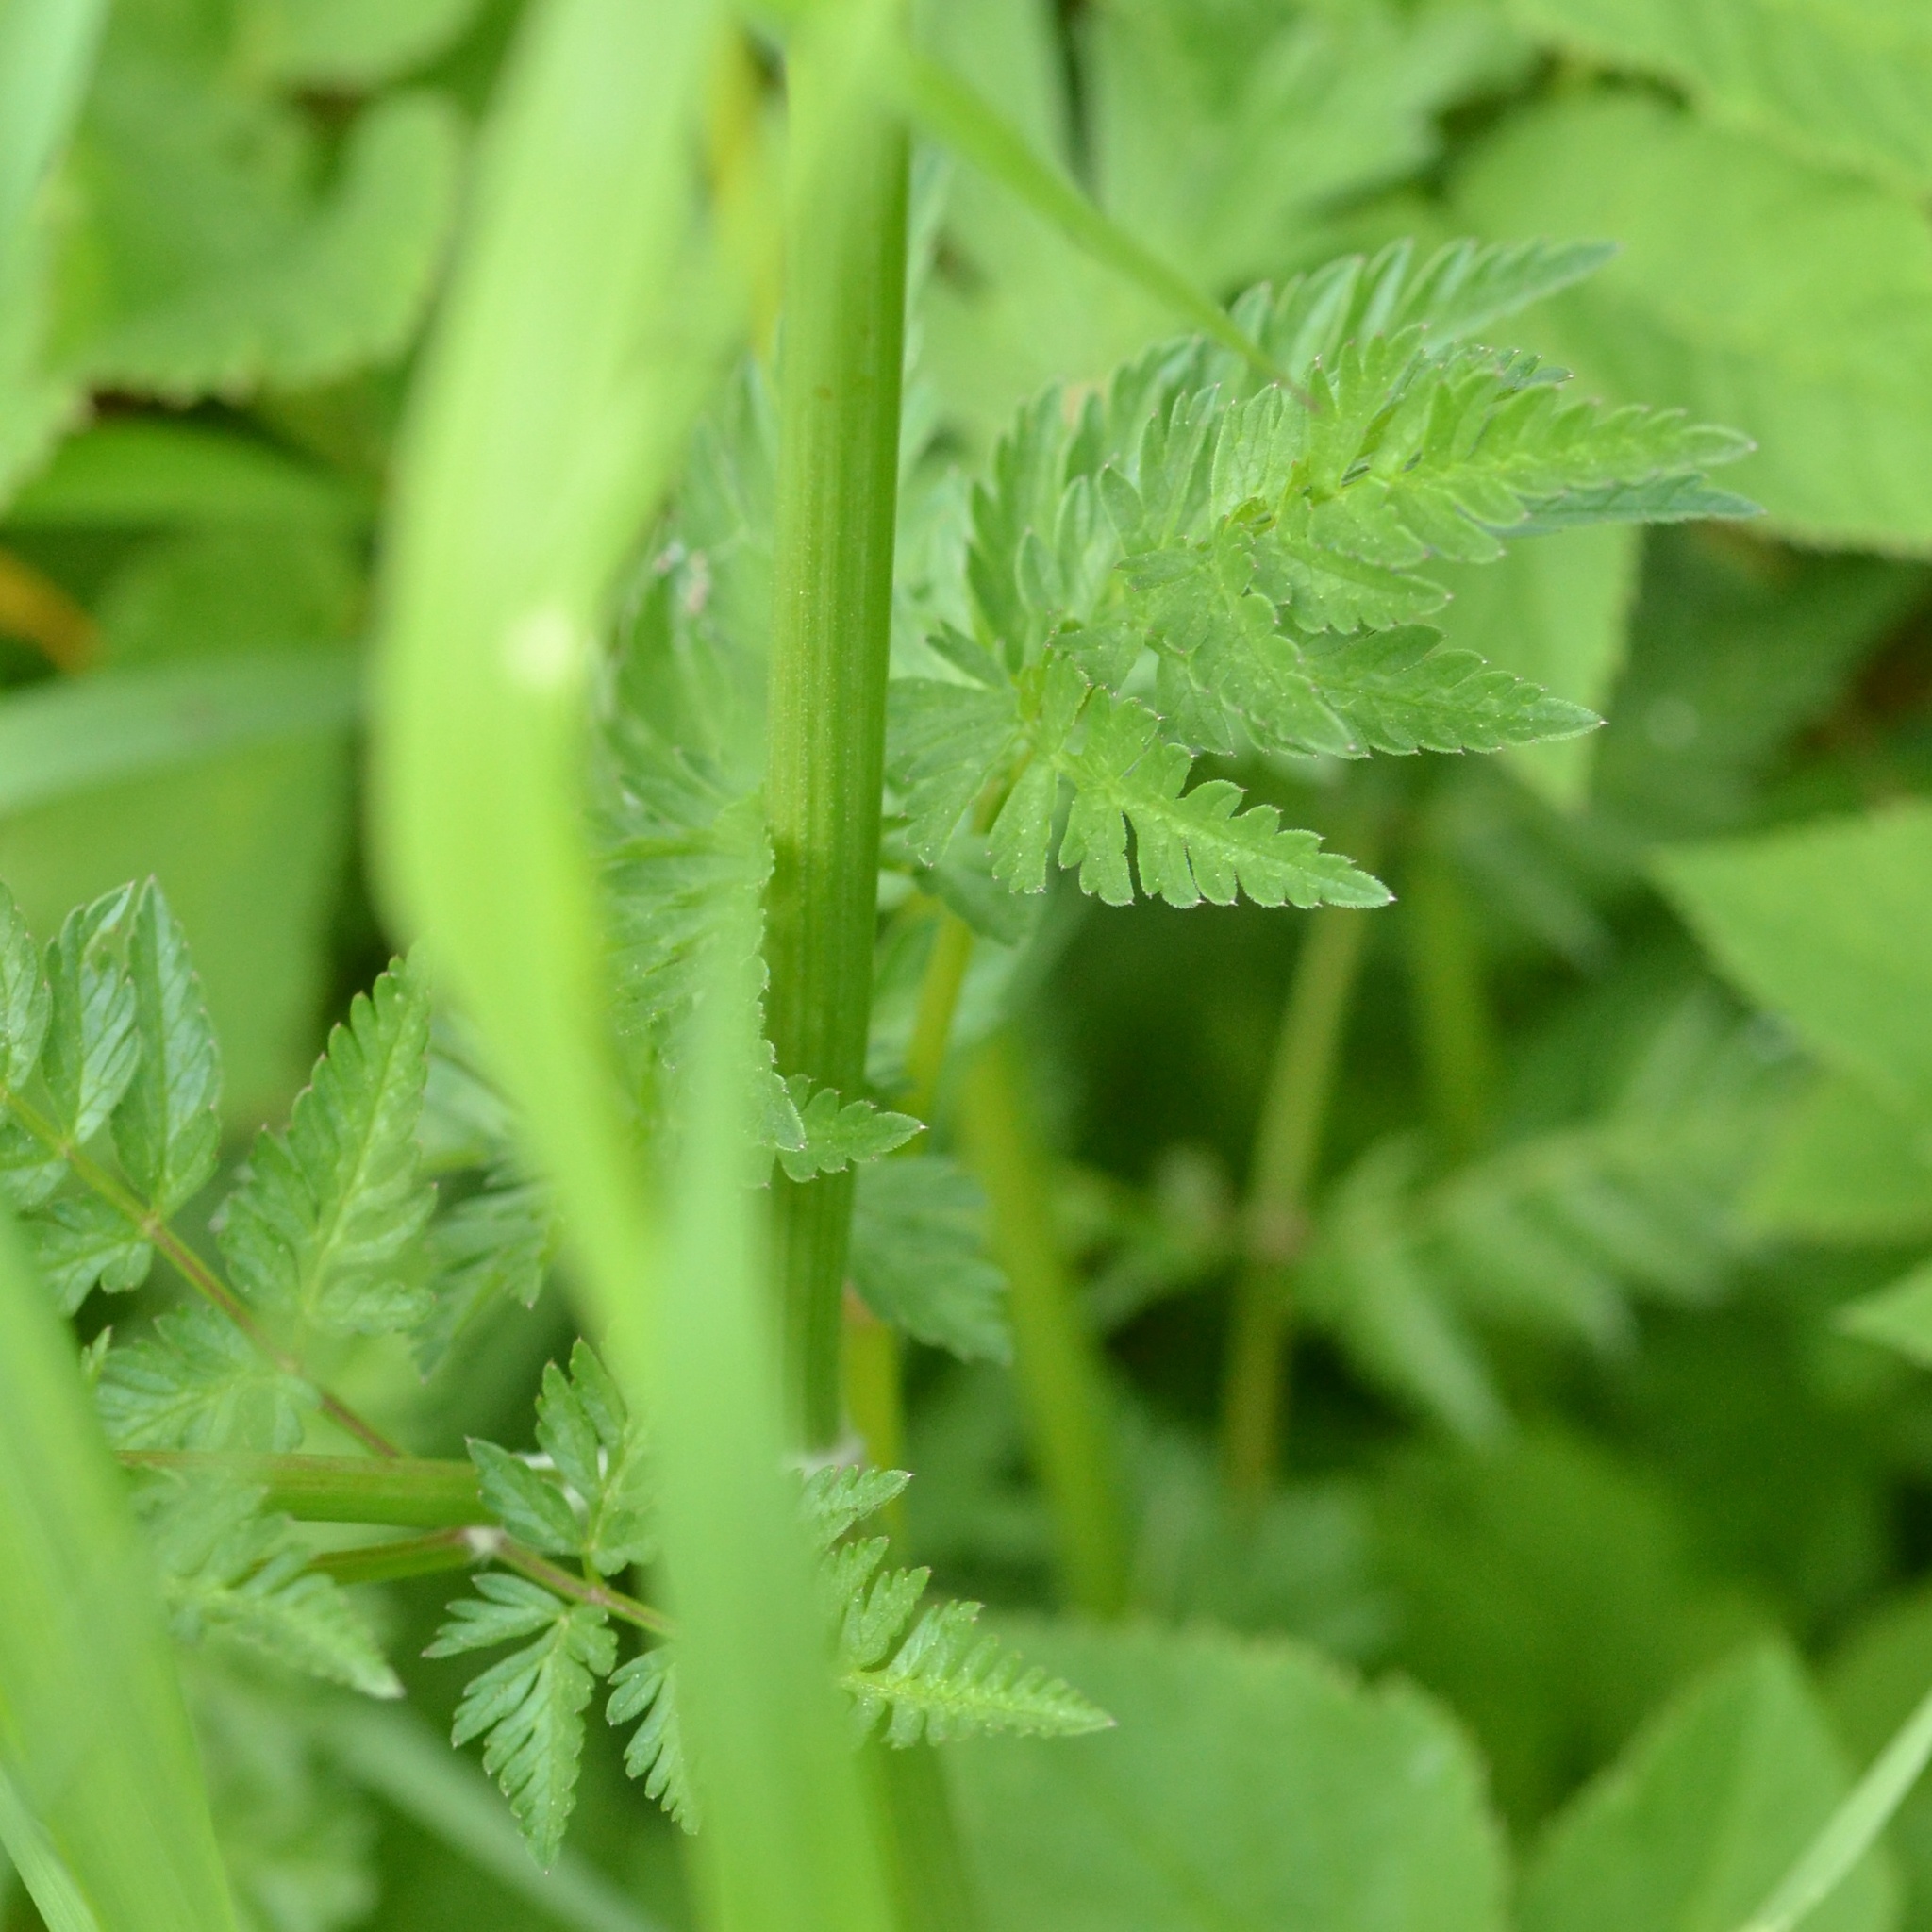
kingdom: Plantae
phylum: Tracheophyta
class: Magnoliopsida
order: Apiales
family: Apiaceae
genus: Anthriscus
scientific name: Anthriscus sylvestris
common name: Cow parsley
